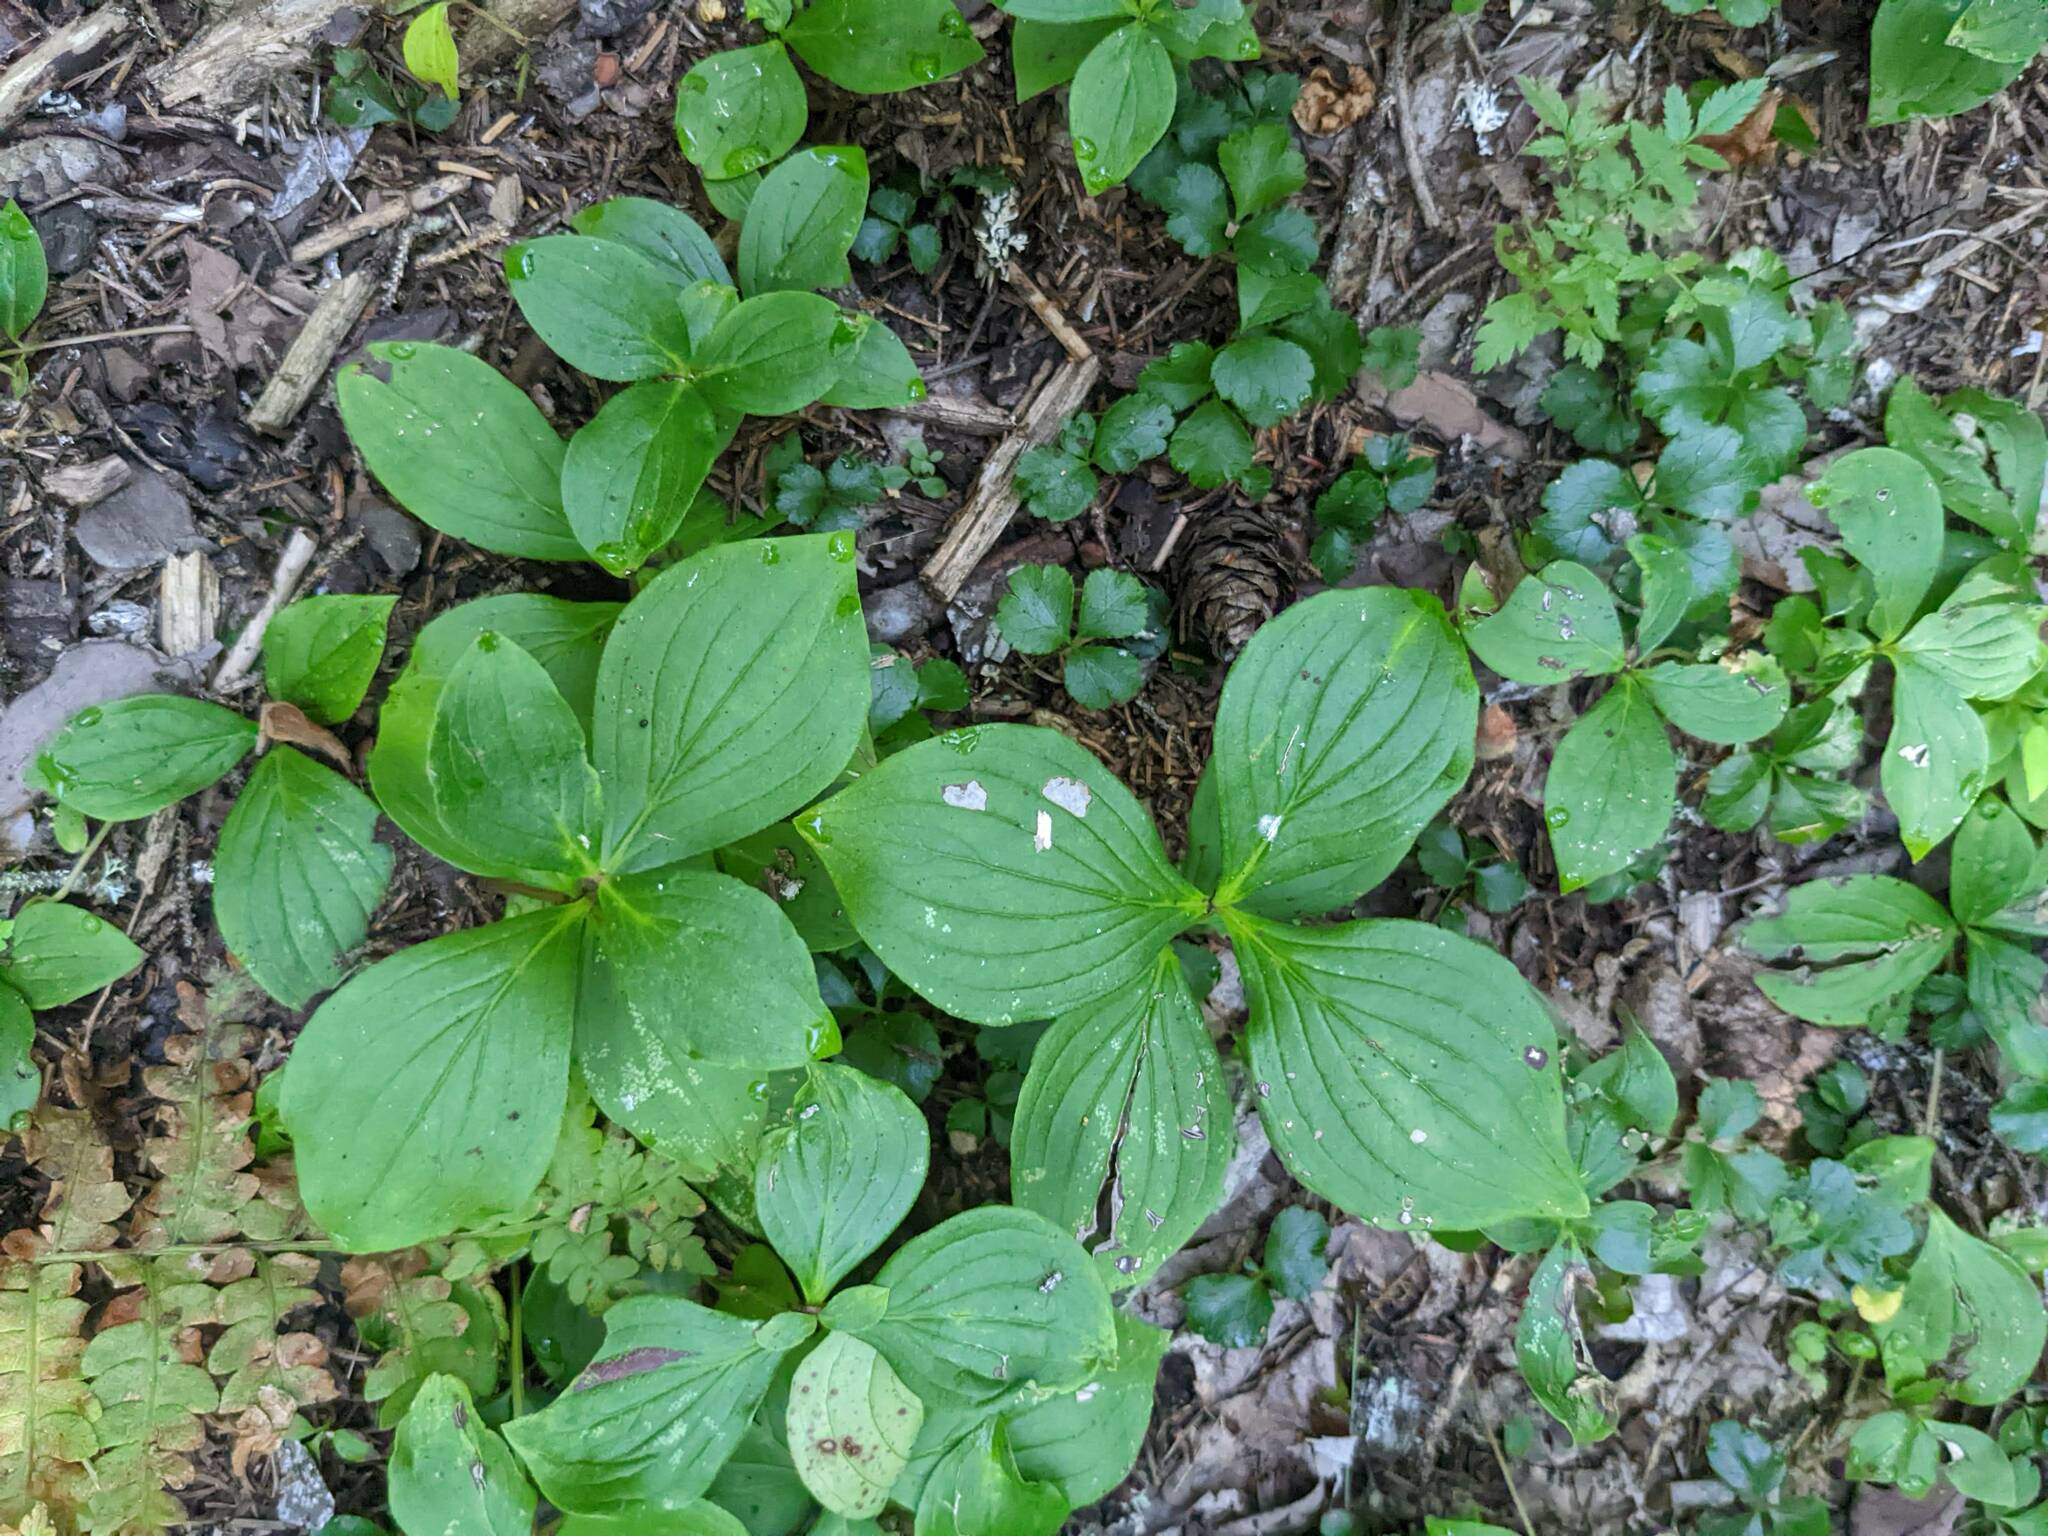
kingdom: Plantae
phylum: Tracheophyta
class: Magnoliopsida
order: Cornales
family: Cornaceae
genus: Cornus
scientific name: Cornus canadensis
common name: Creeping dogwood
